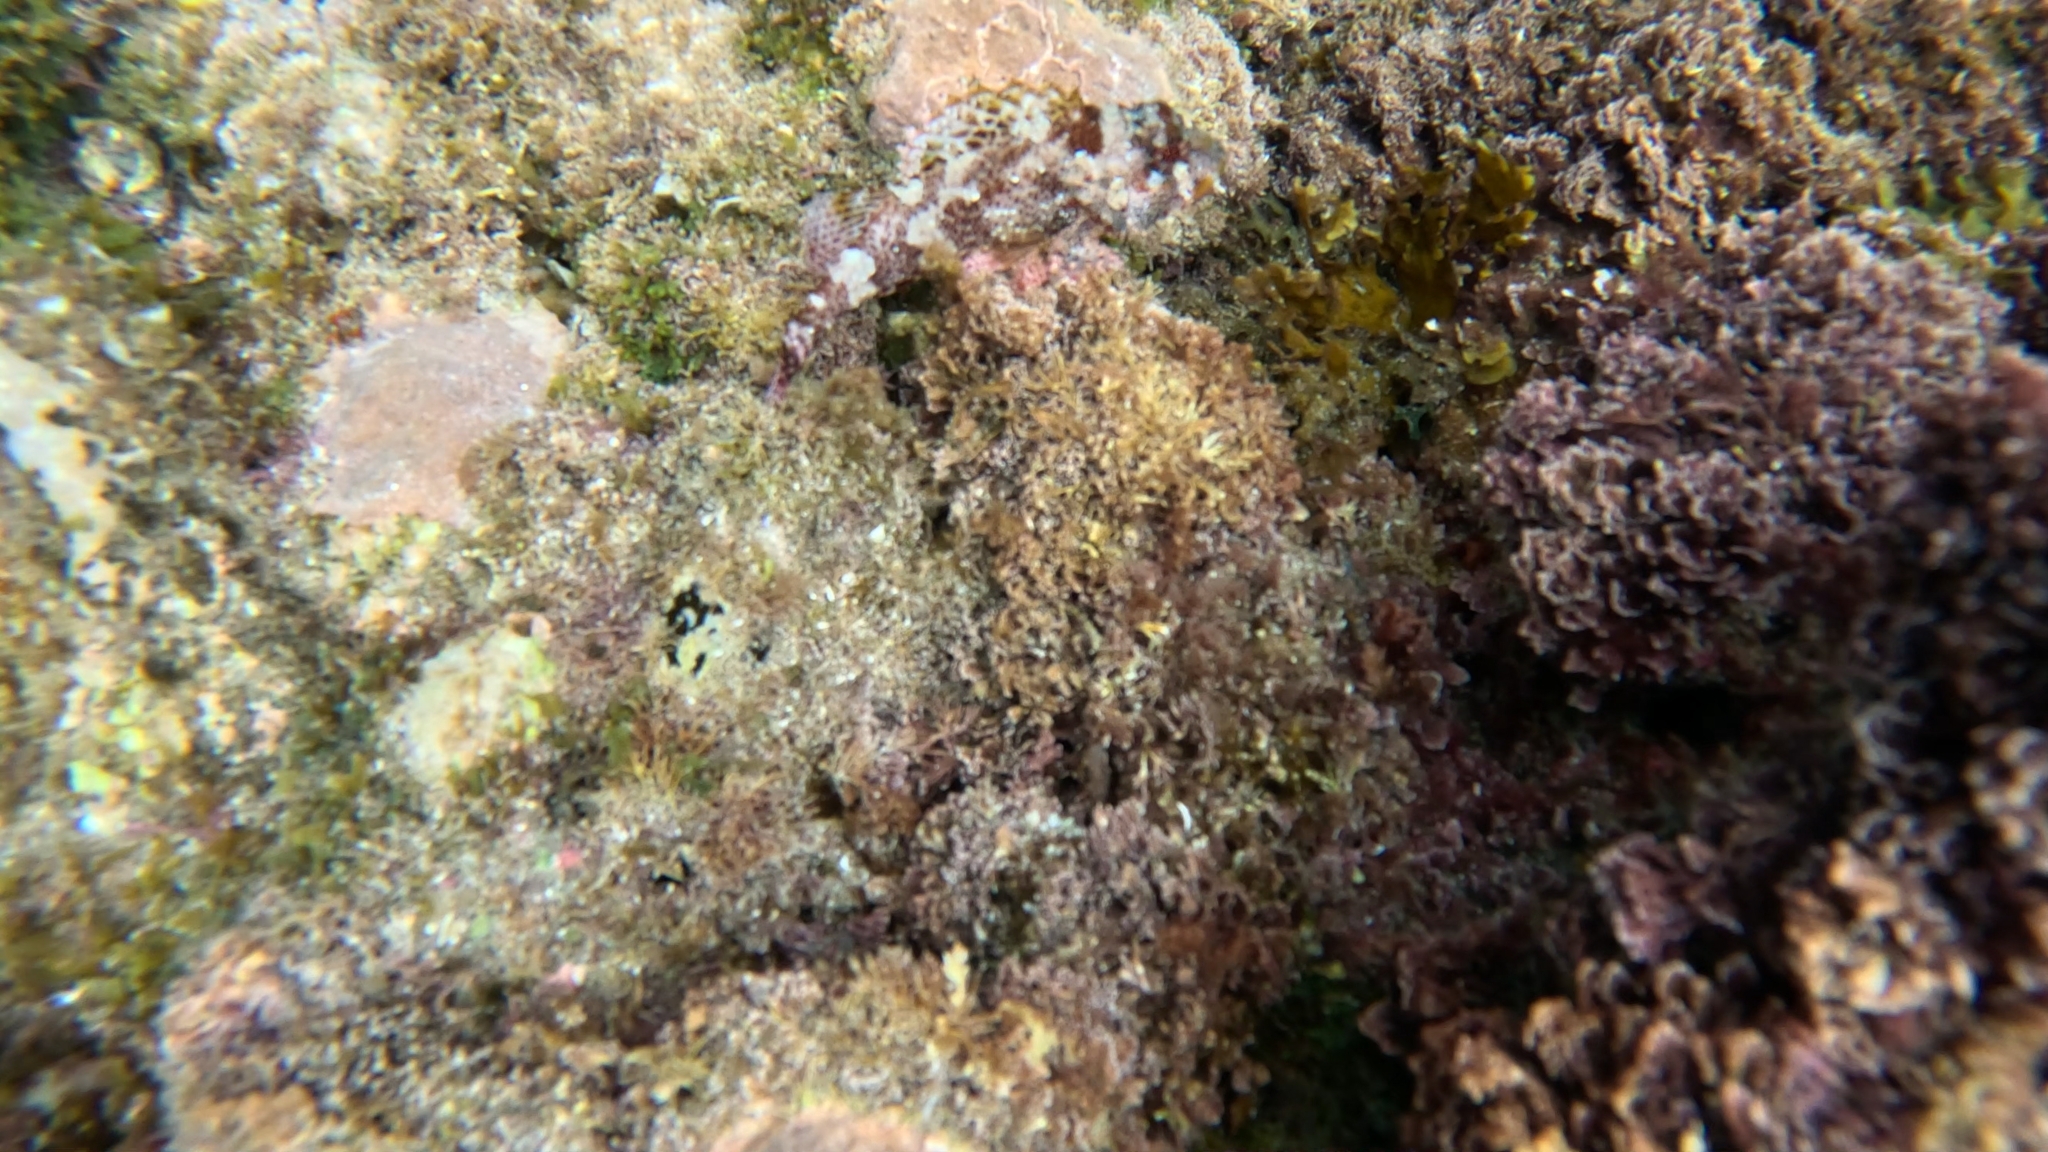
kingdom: Animalia
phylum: Chordata
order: Scorpaeniformes
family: Scorpaenidae
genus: Scorpaena
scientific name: Scorpaena maderensis
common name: Madeira rockfish
